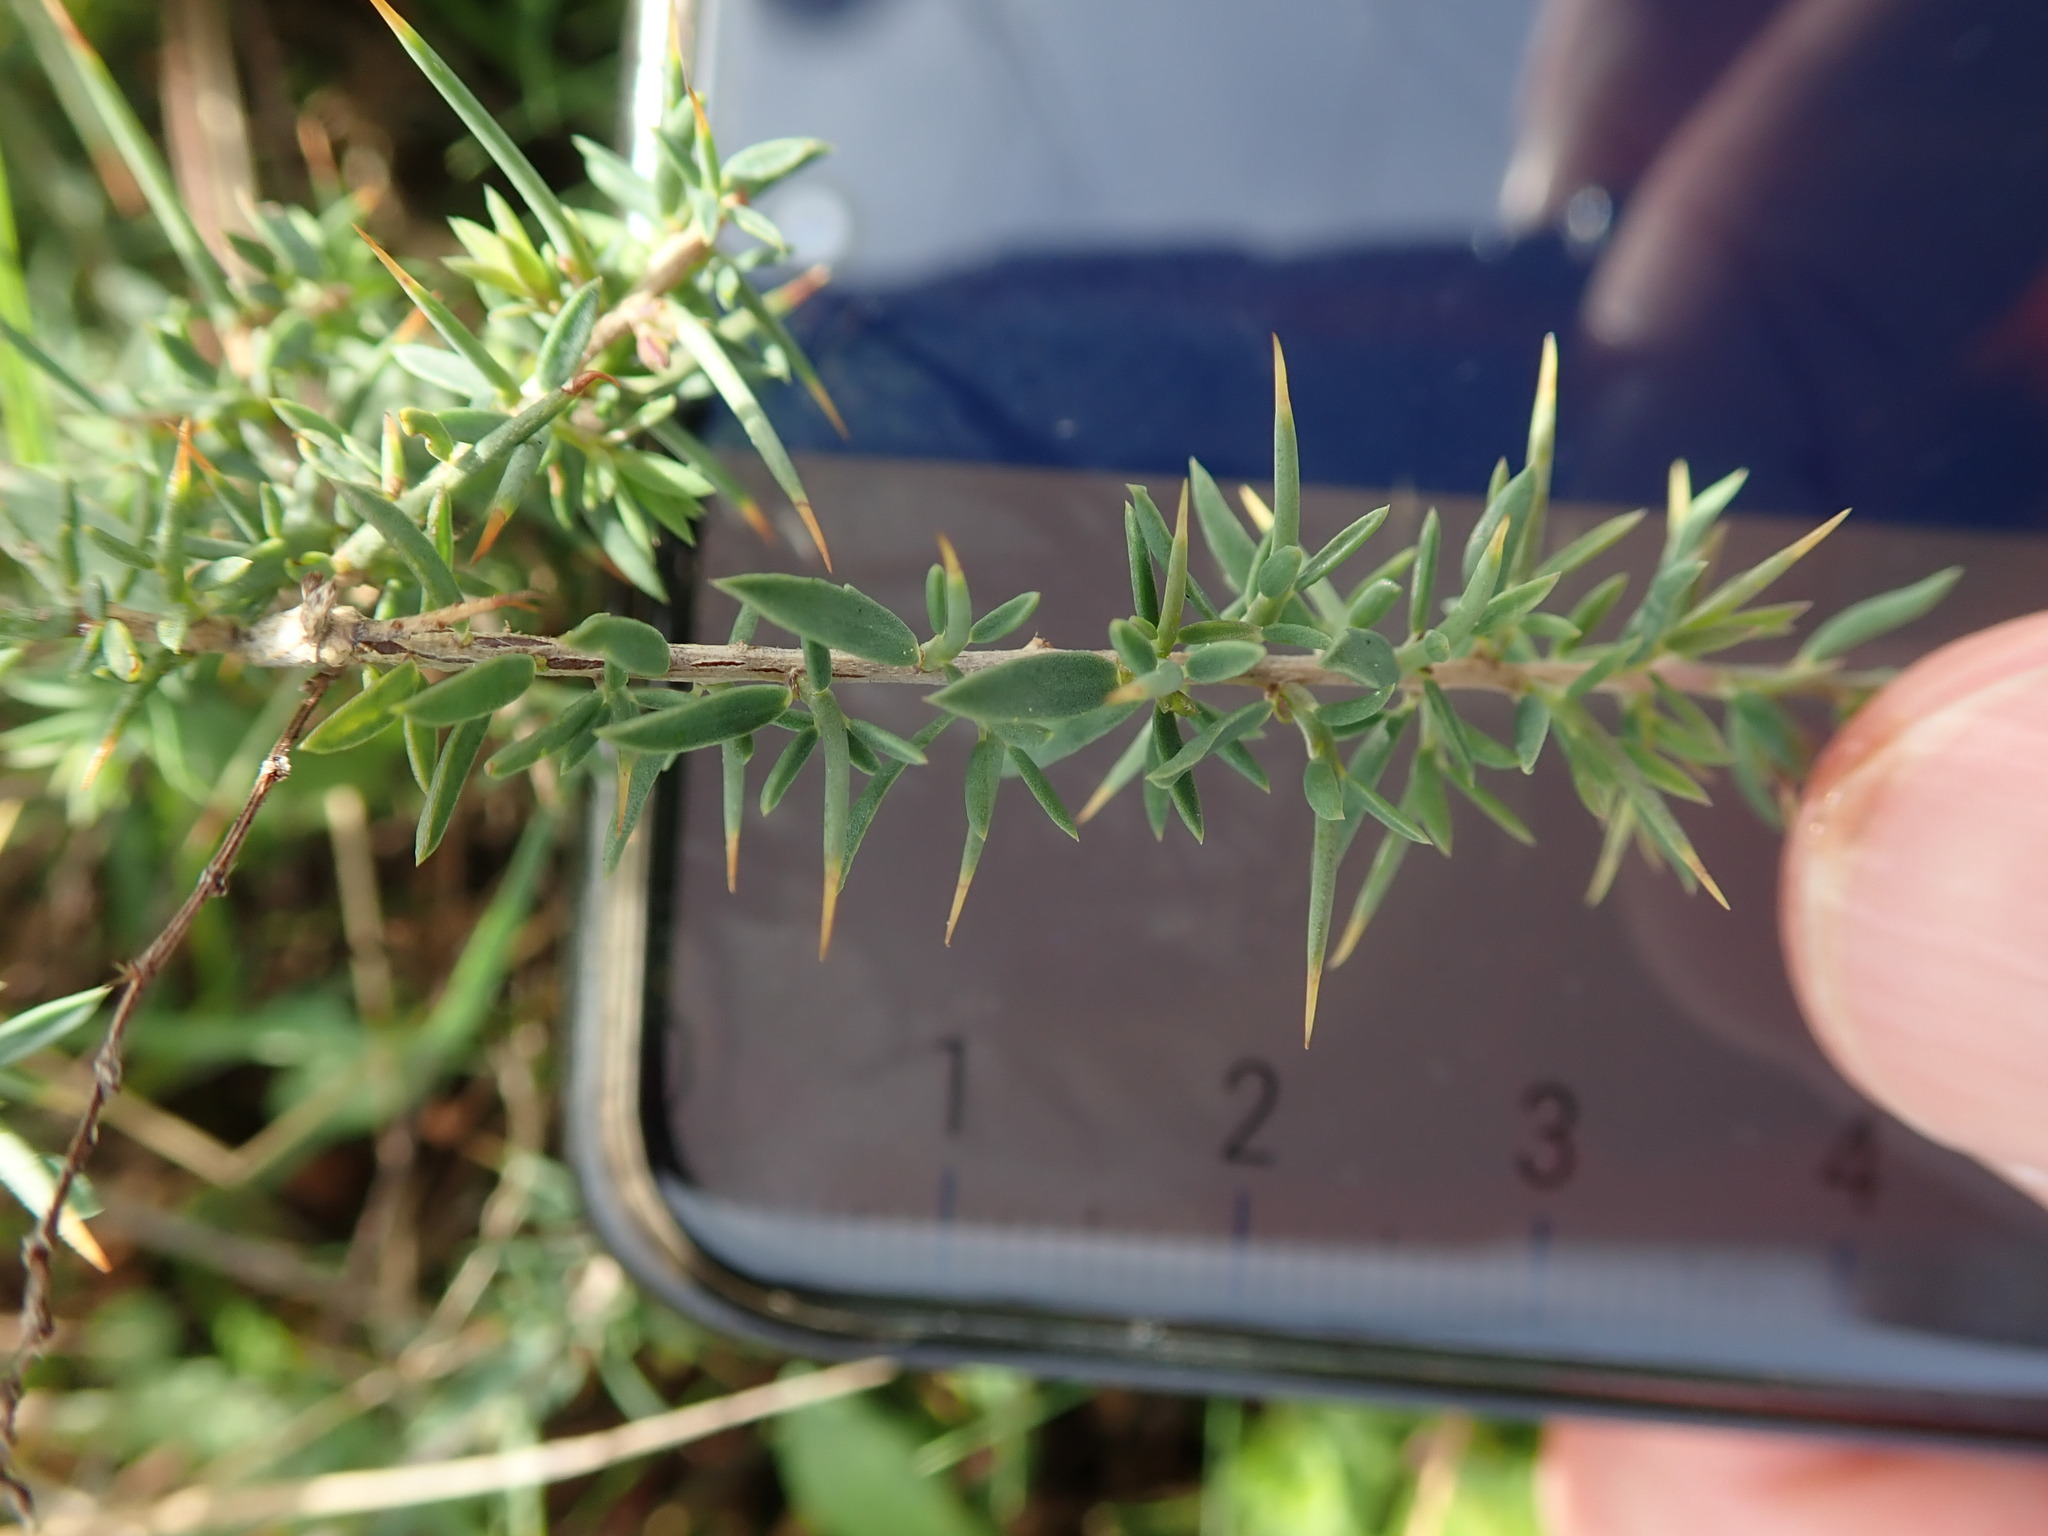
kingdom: Plantae
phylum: Tracheophyta
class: Magnoliopsida
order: Fabales
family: Fabaceae
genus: Genista
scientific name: Genista anglica
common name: Petty whin
